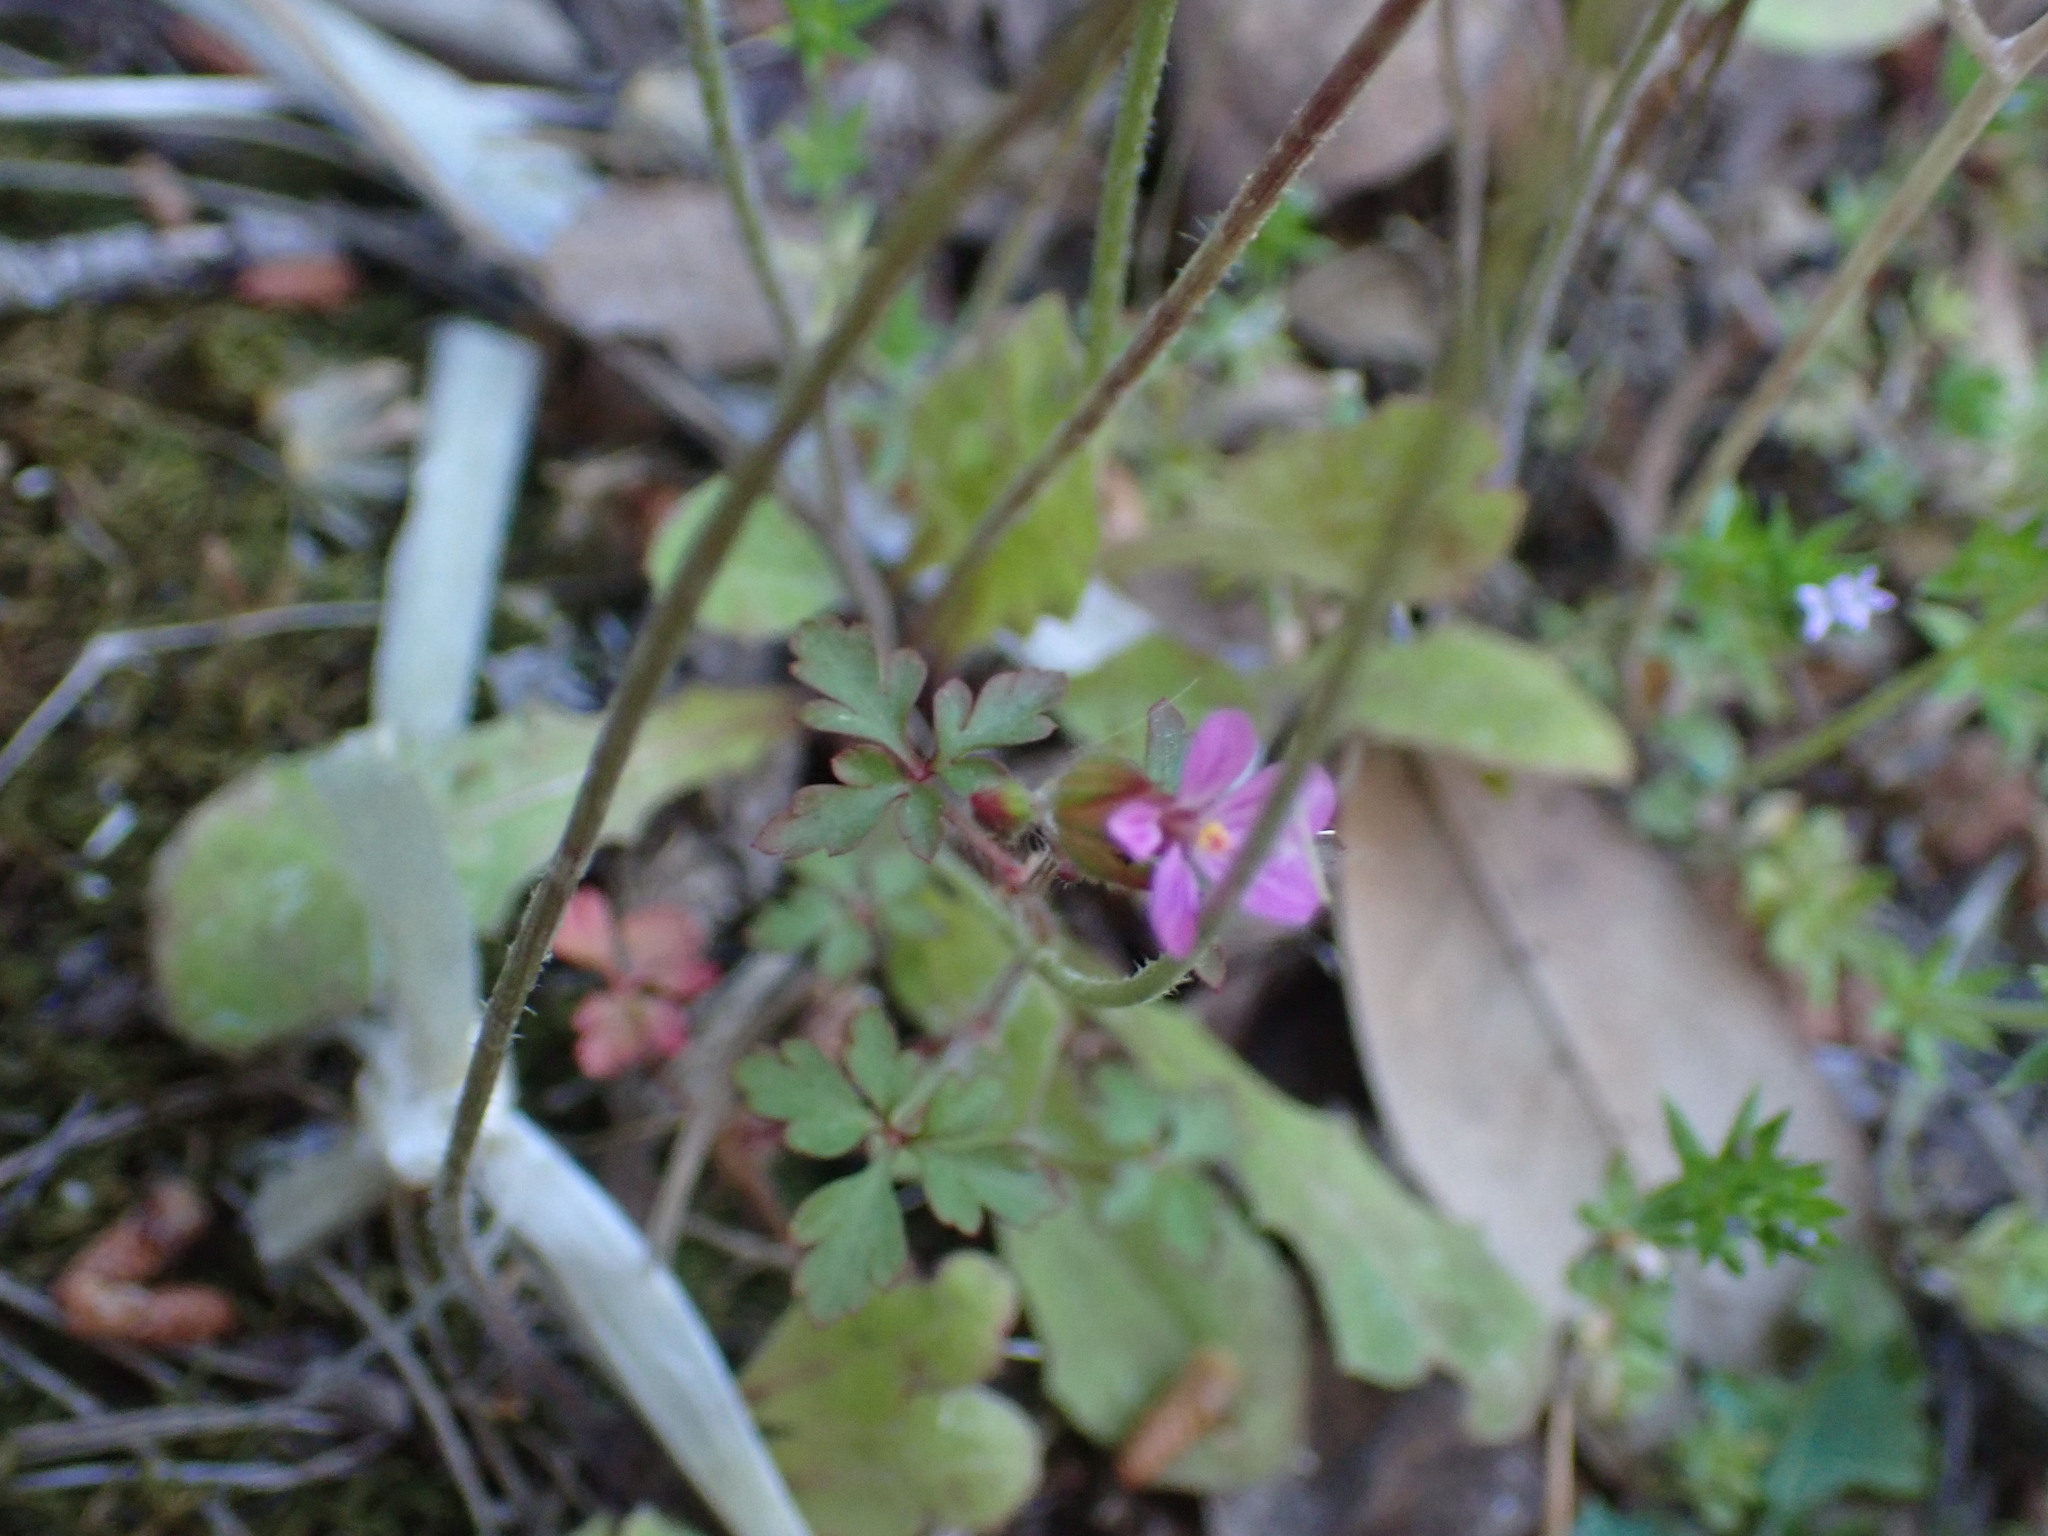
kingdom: Plantae
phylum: Tracheophyta
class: Magnoliopsida
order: Geraniales
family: Geraniaceae
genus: Geranium
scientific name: Geranium purpureum
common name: Little-robin
